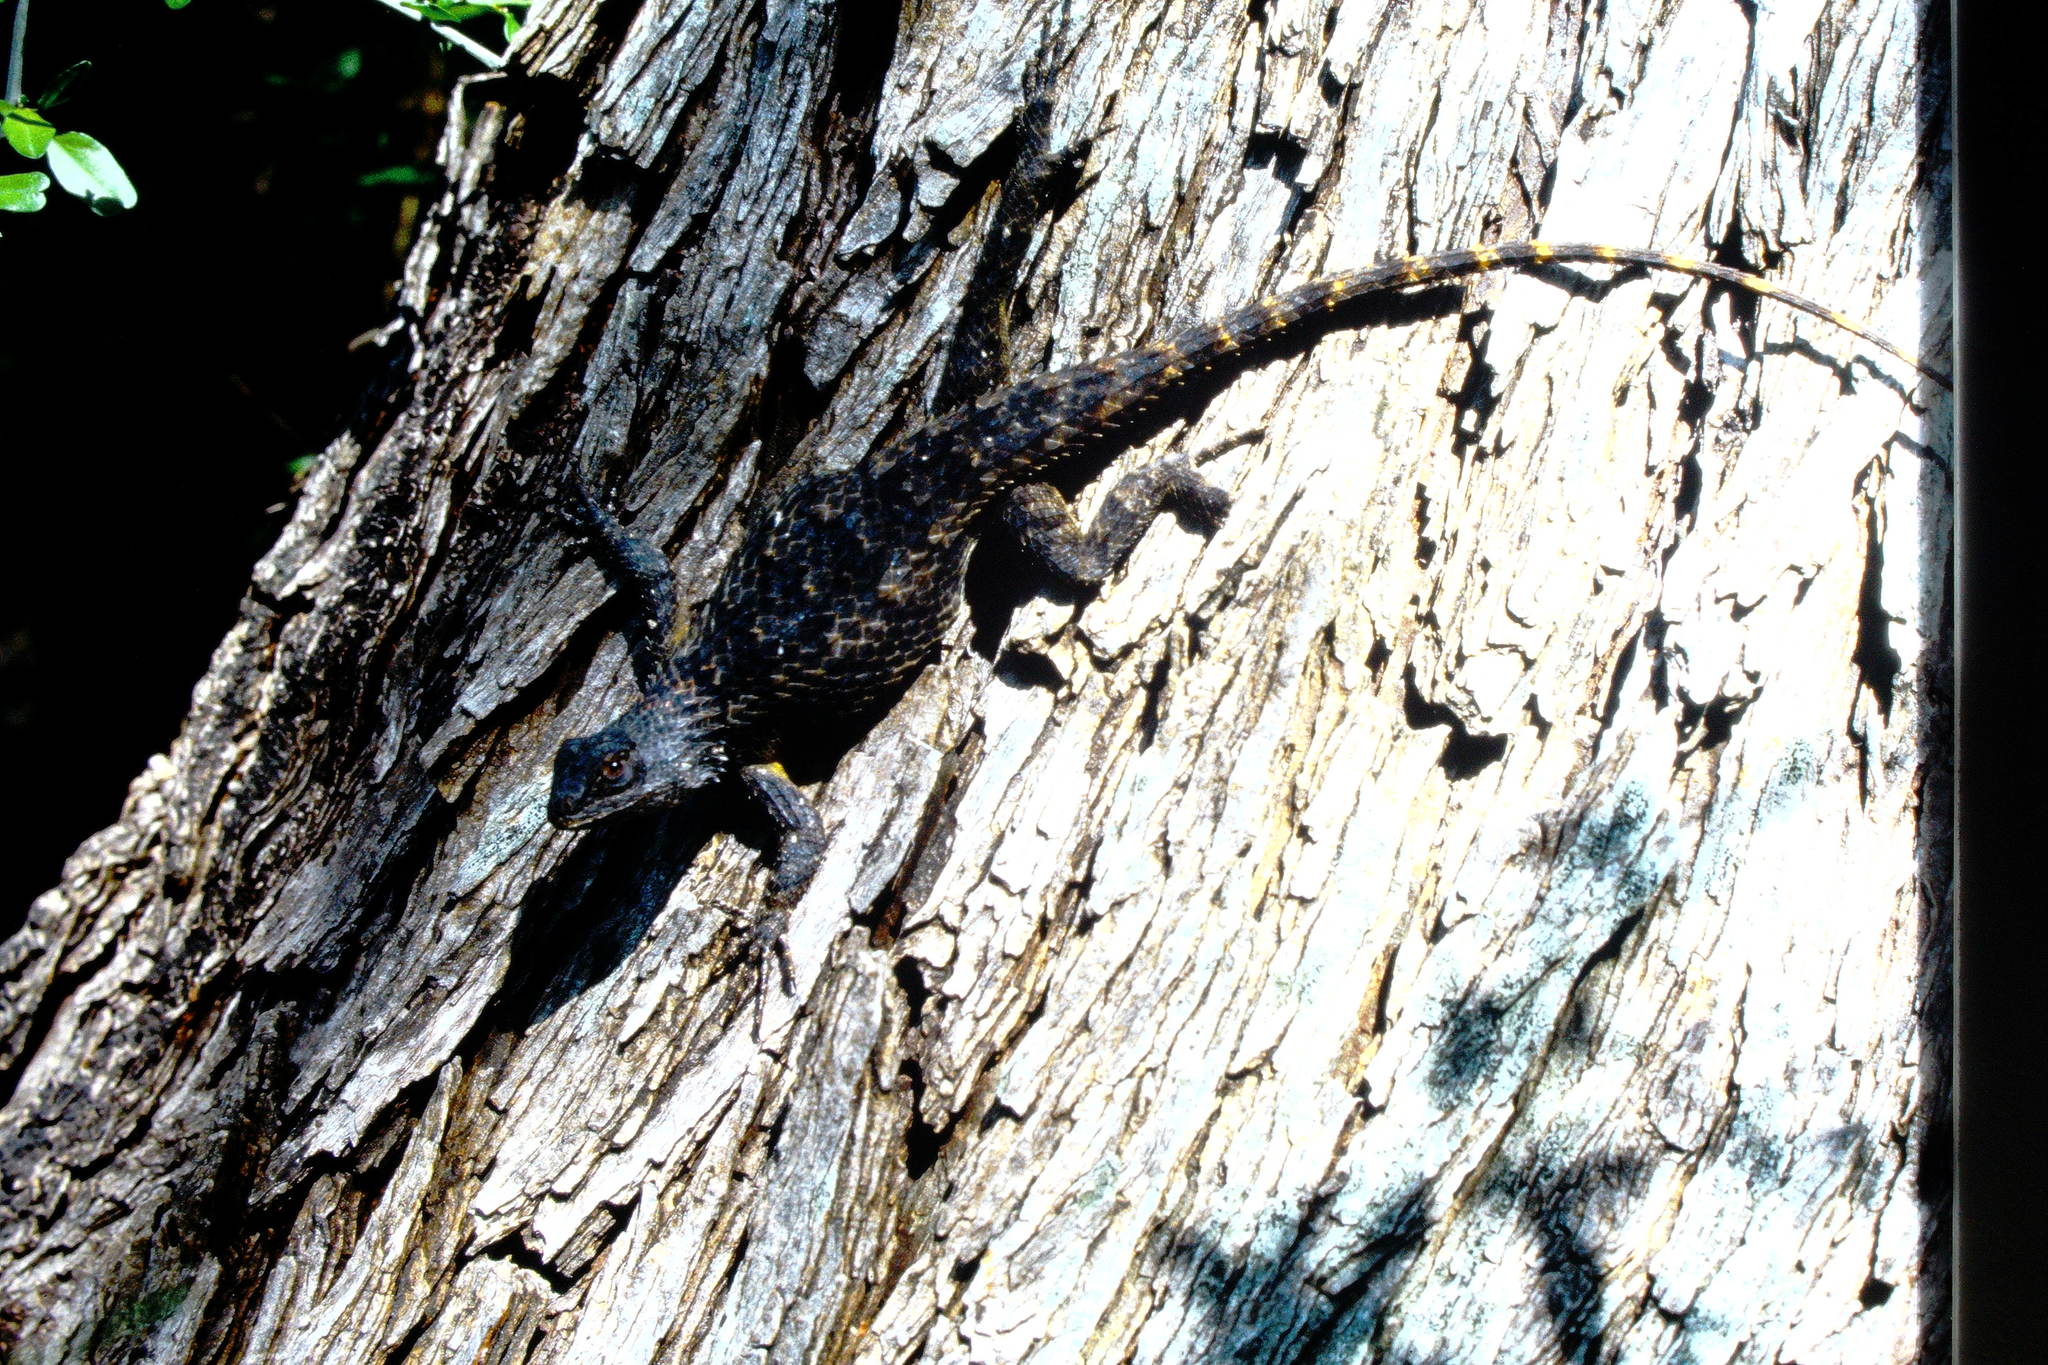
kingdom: Animalia
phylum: Chordata
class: Squamata
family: Phrynosomatidae
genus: Sceloporus
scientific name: Sceloporus olivaceus
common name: Texas spiny lizard
